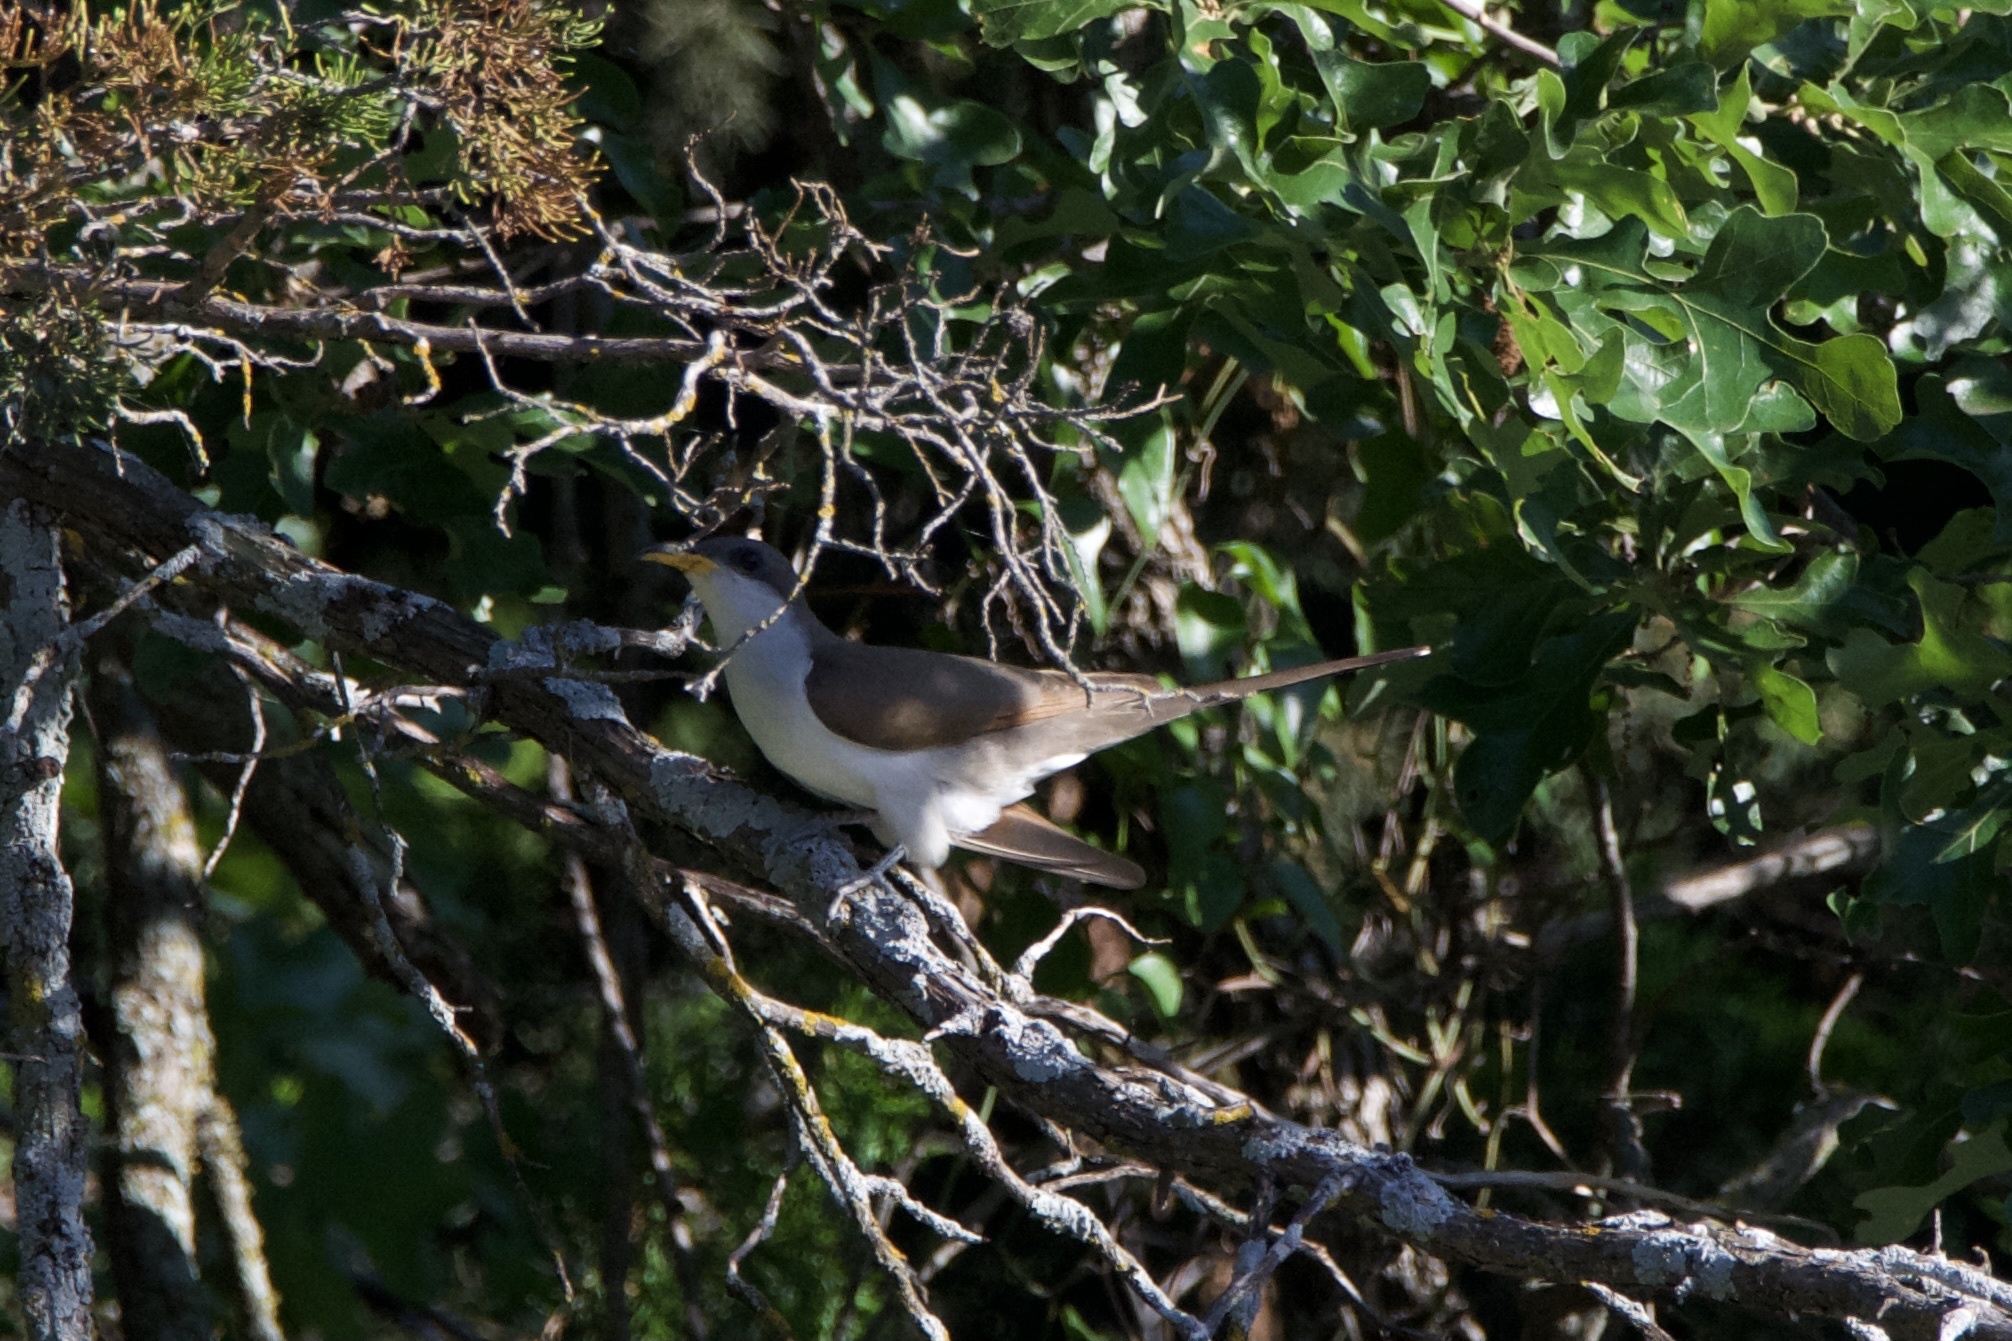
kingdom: Animalia
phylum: Chordata
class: Aves
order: Cuculiformes
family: Cuculidae
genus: Coccyzus
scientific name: Coccyzus americanus
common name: Yellow-billed cuckoo
